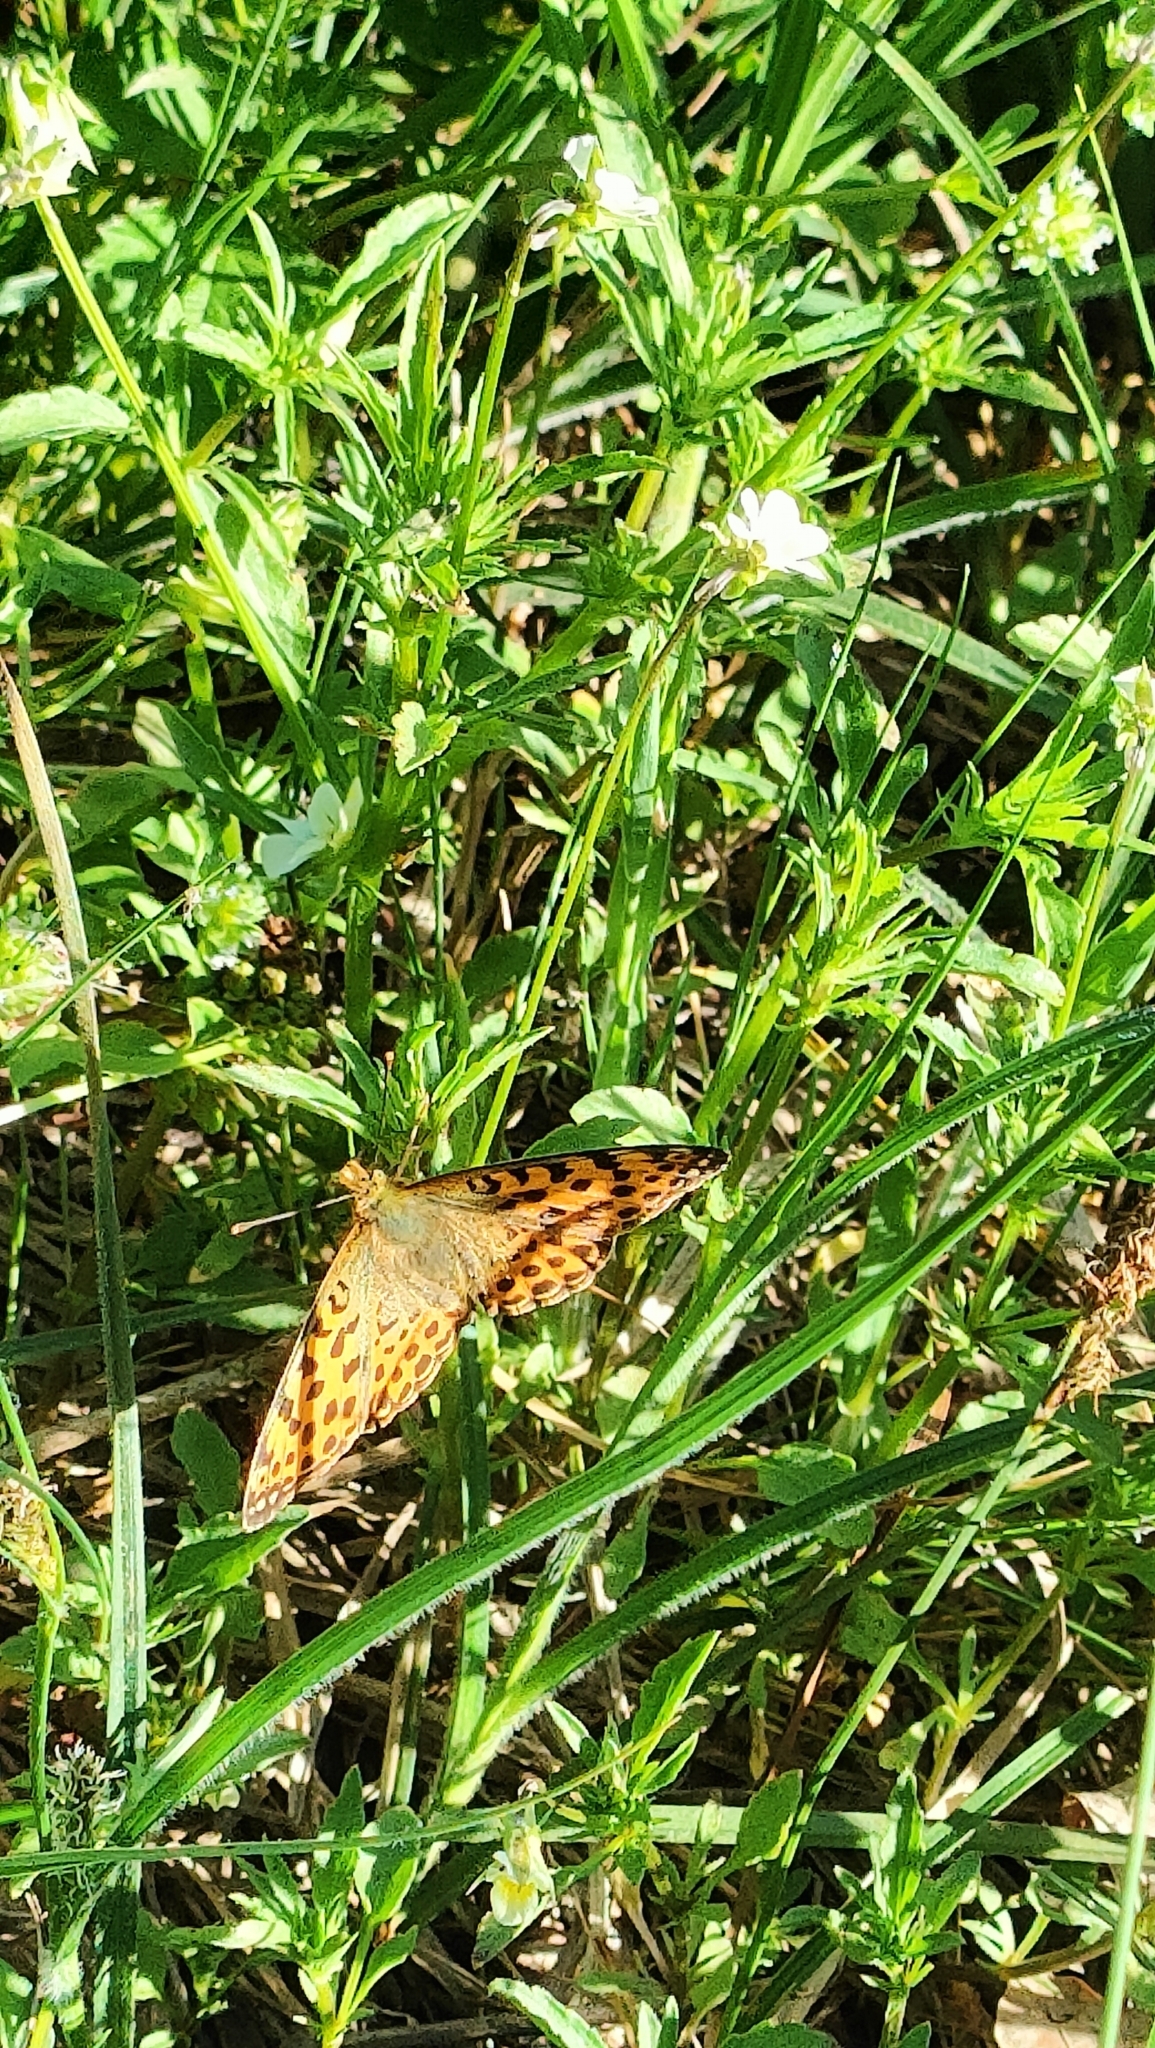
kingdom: Animalia
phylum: Arthropoda
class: Insecta
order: Lepidoptera
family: Nymphalidae
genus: Issoria
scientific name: Issoria lathonia
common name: Queen of spain fritillary
